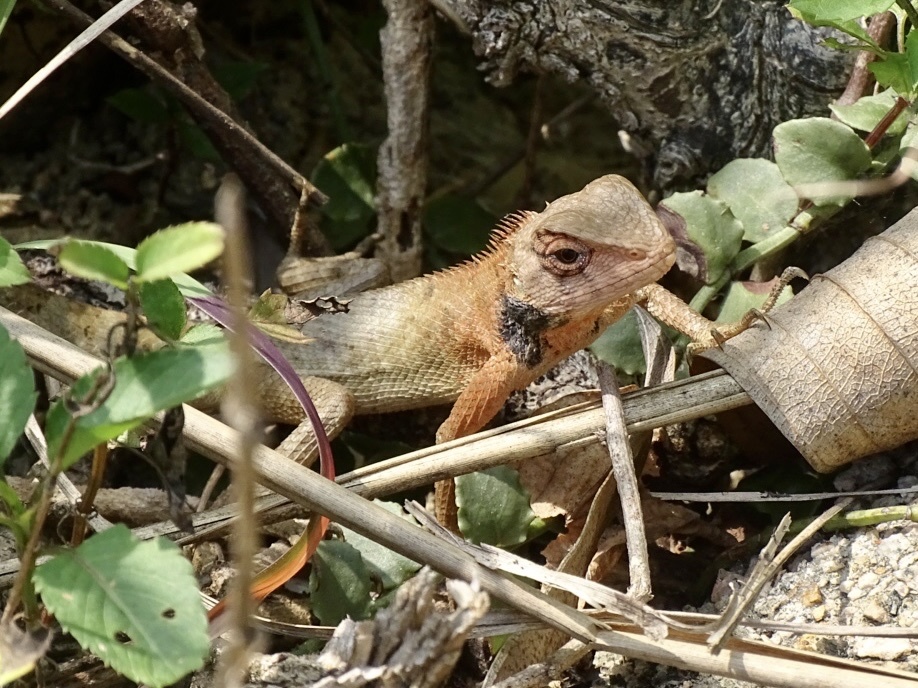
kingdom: Animalia
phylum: Chordata
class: Squamata
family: Agamidae
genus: Calotes
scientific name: Calotes versicolor
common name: Oriental garden lizard
